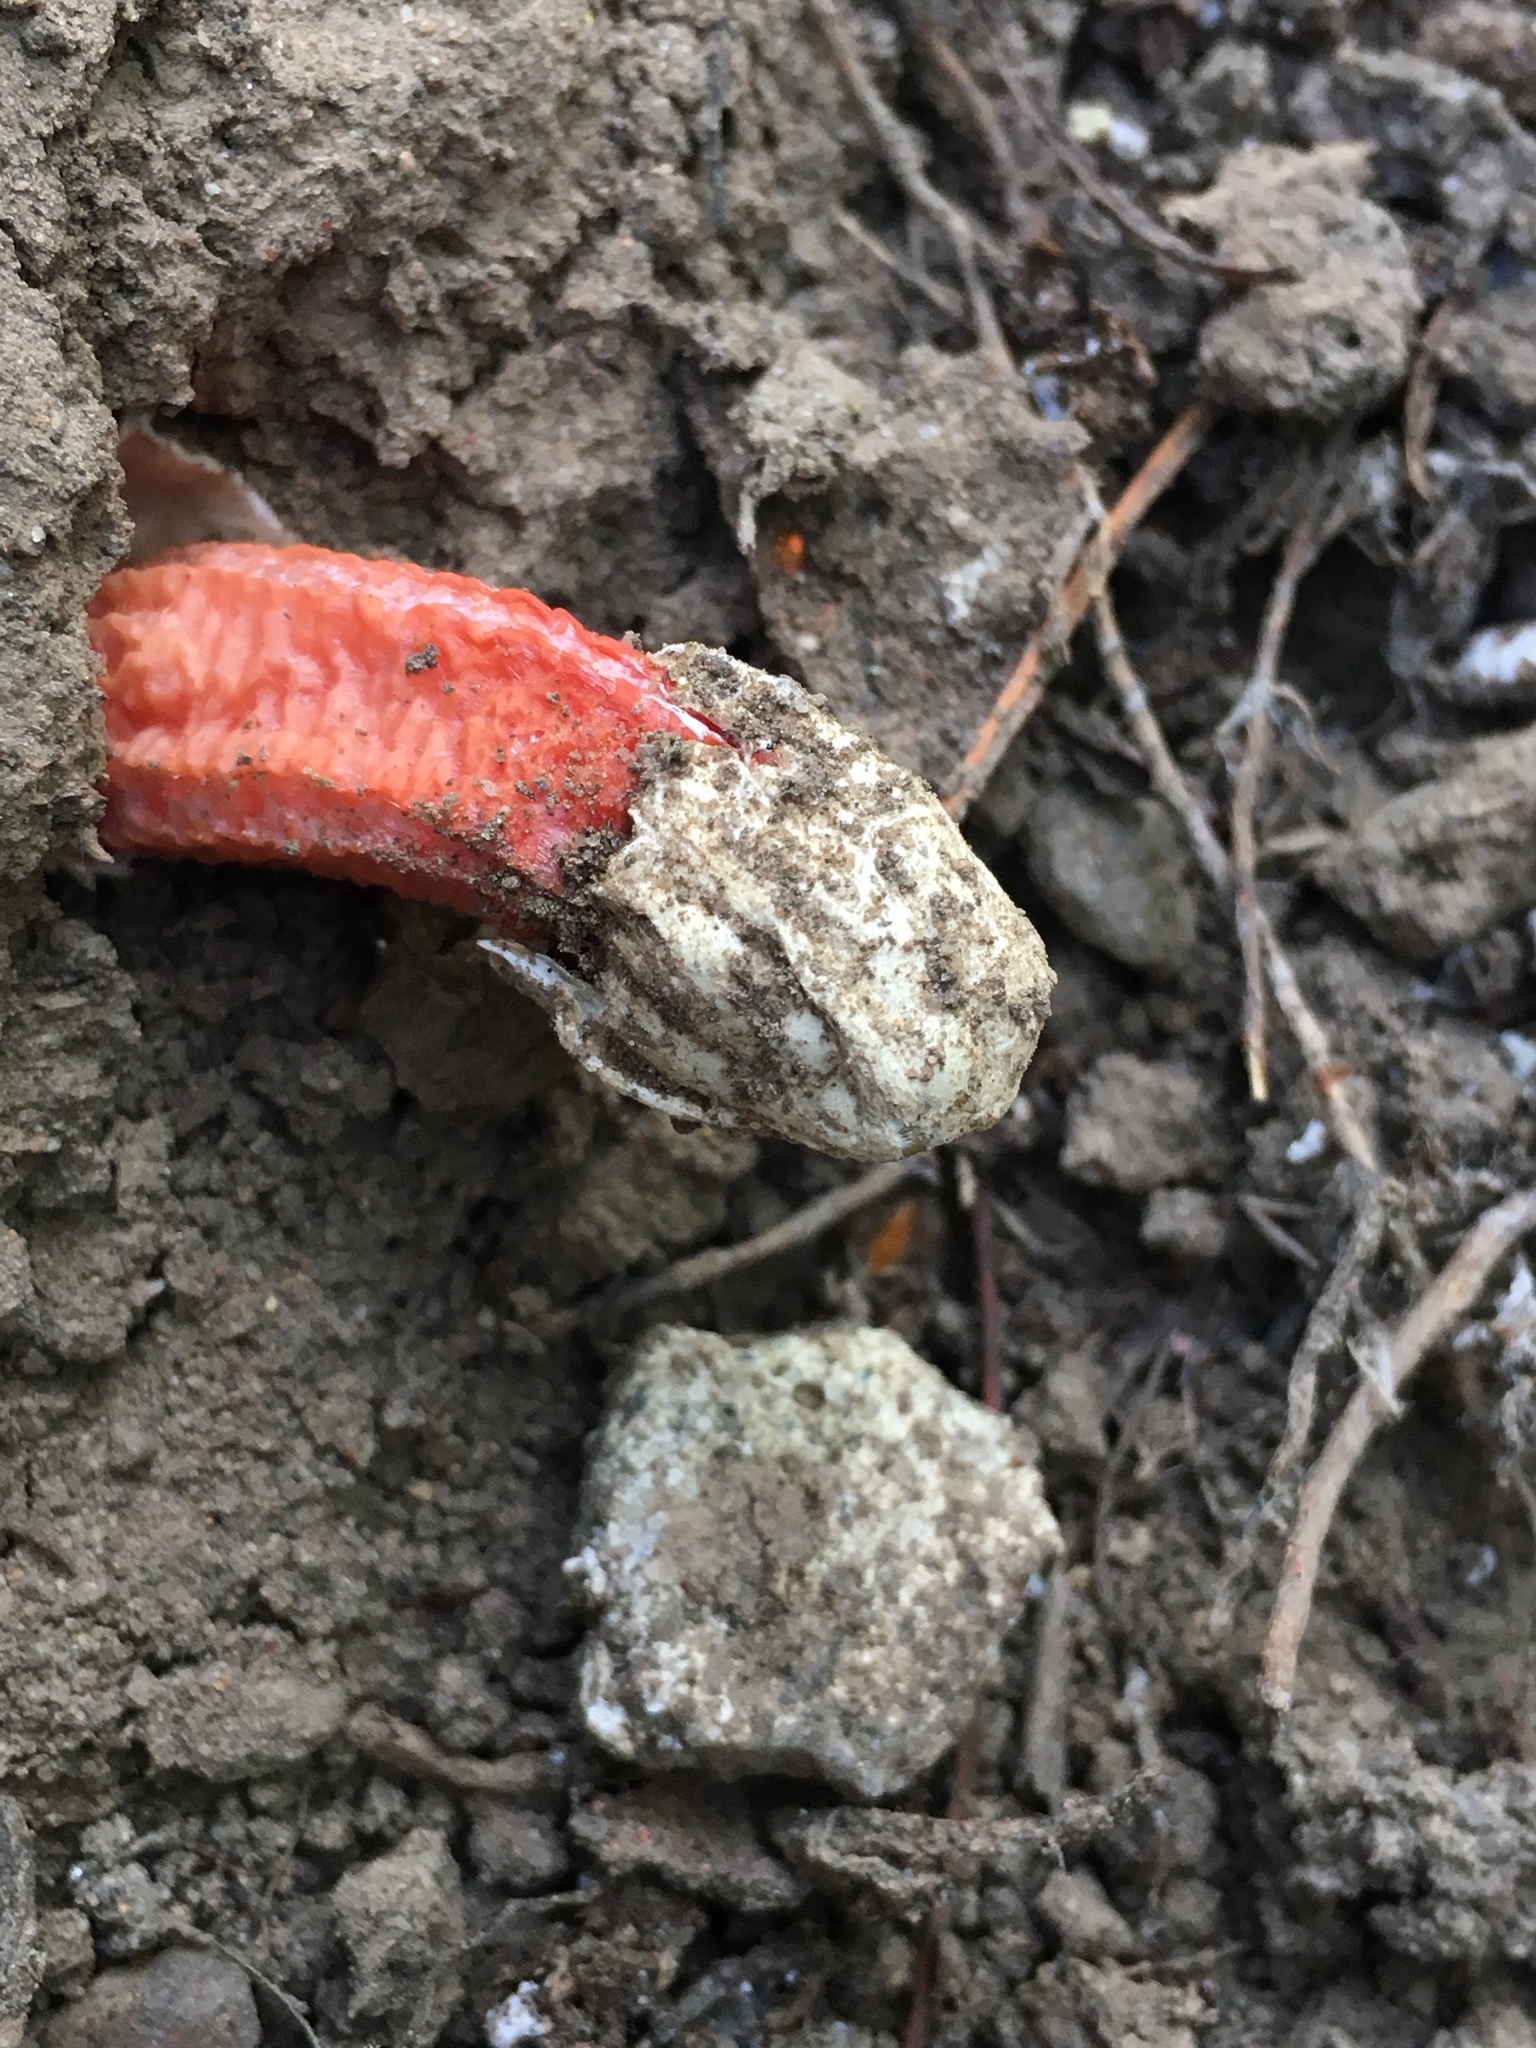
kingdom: Fungi
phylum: Basidiomycota
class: Agaricomycetes
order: Phallales
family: Phallaceae
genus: Lysurus
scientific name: Lysurus mokusin
